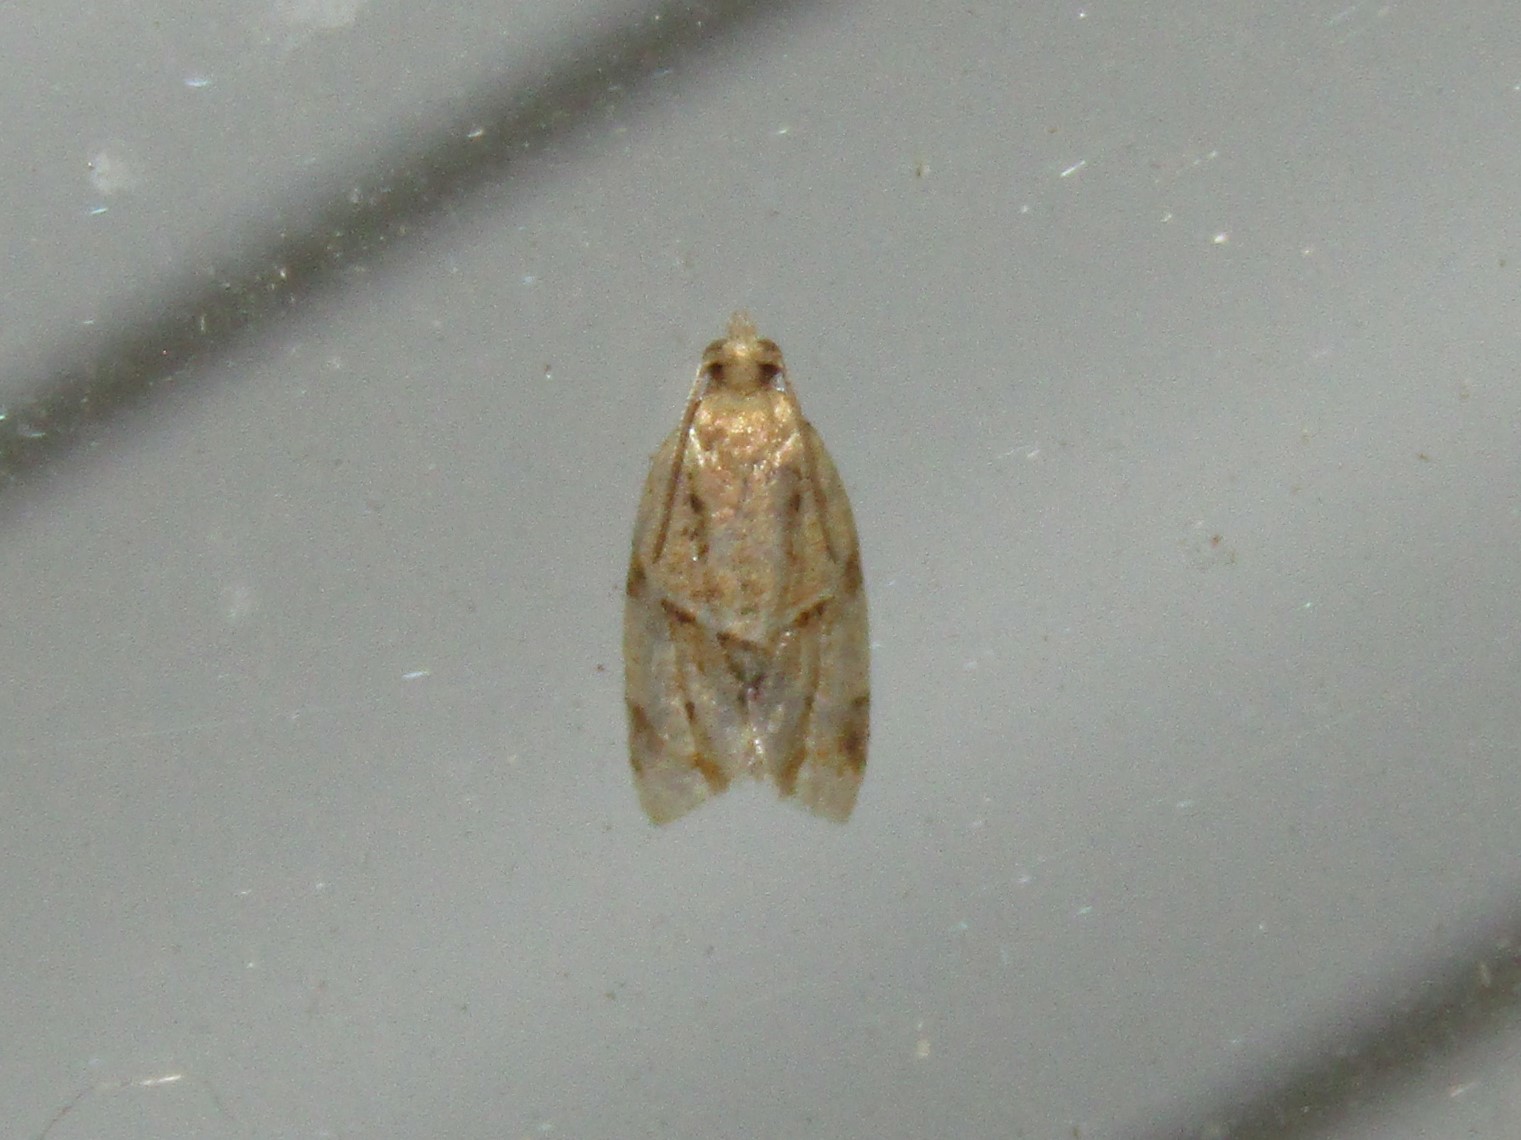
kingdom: Animalia
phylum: Arthropoda
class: Insecta
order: Lepidoptera
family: Tortricidae
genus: Clepsis
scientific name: Clepsis peritana
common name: Garden tortrix
